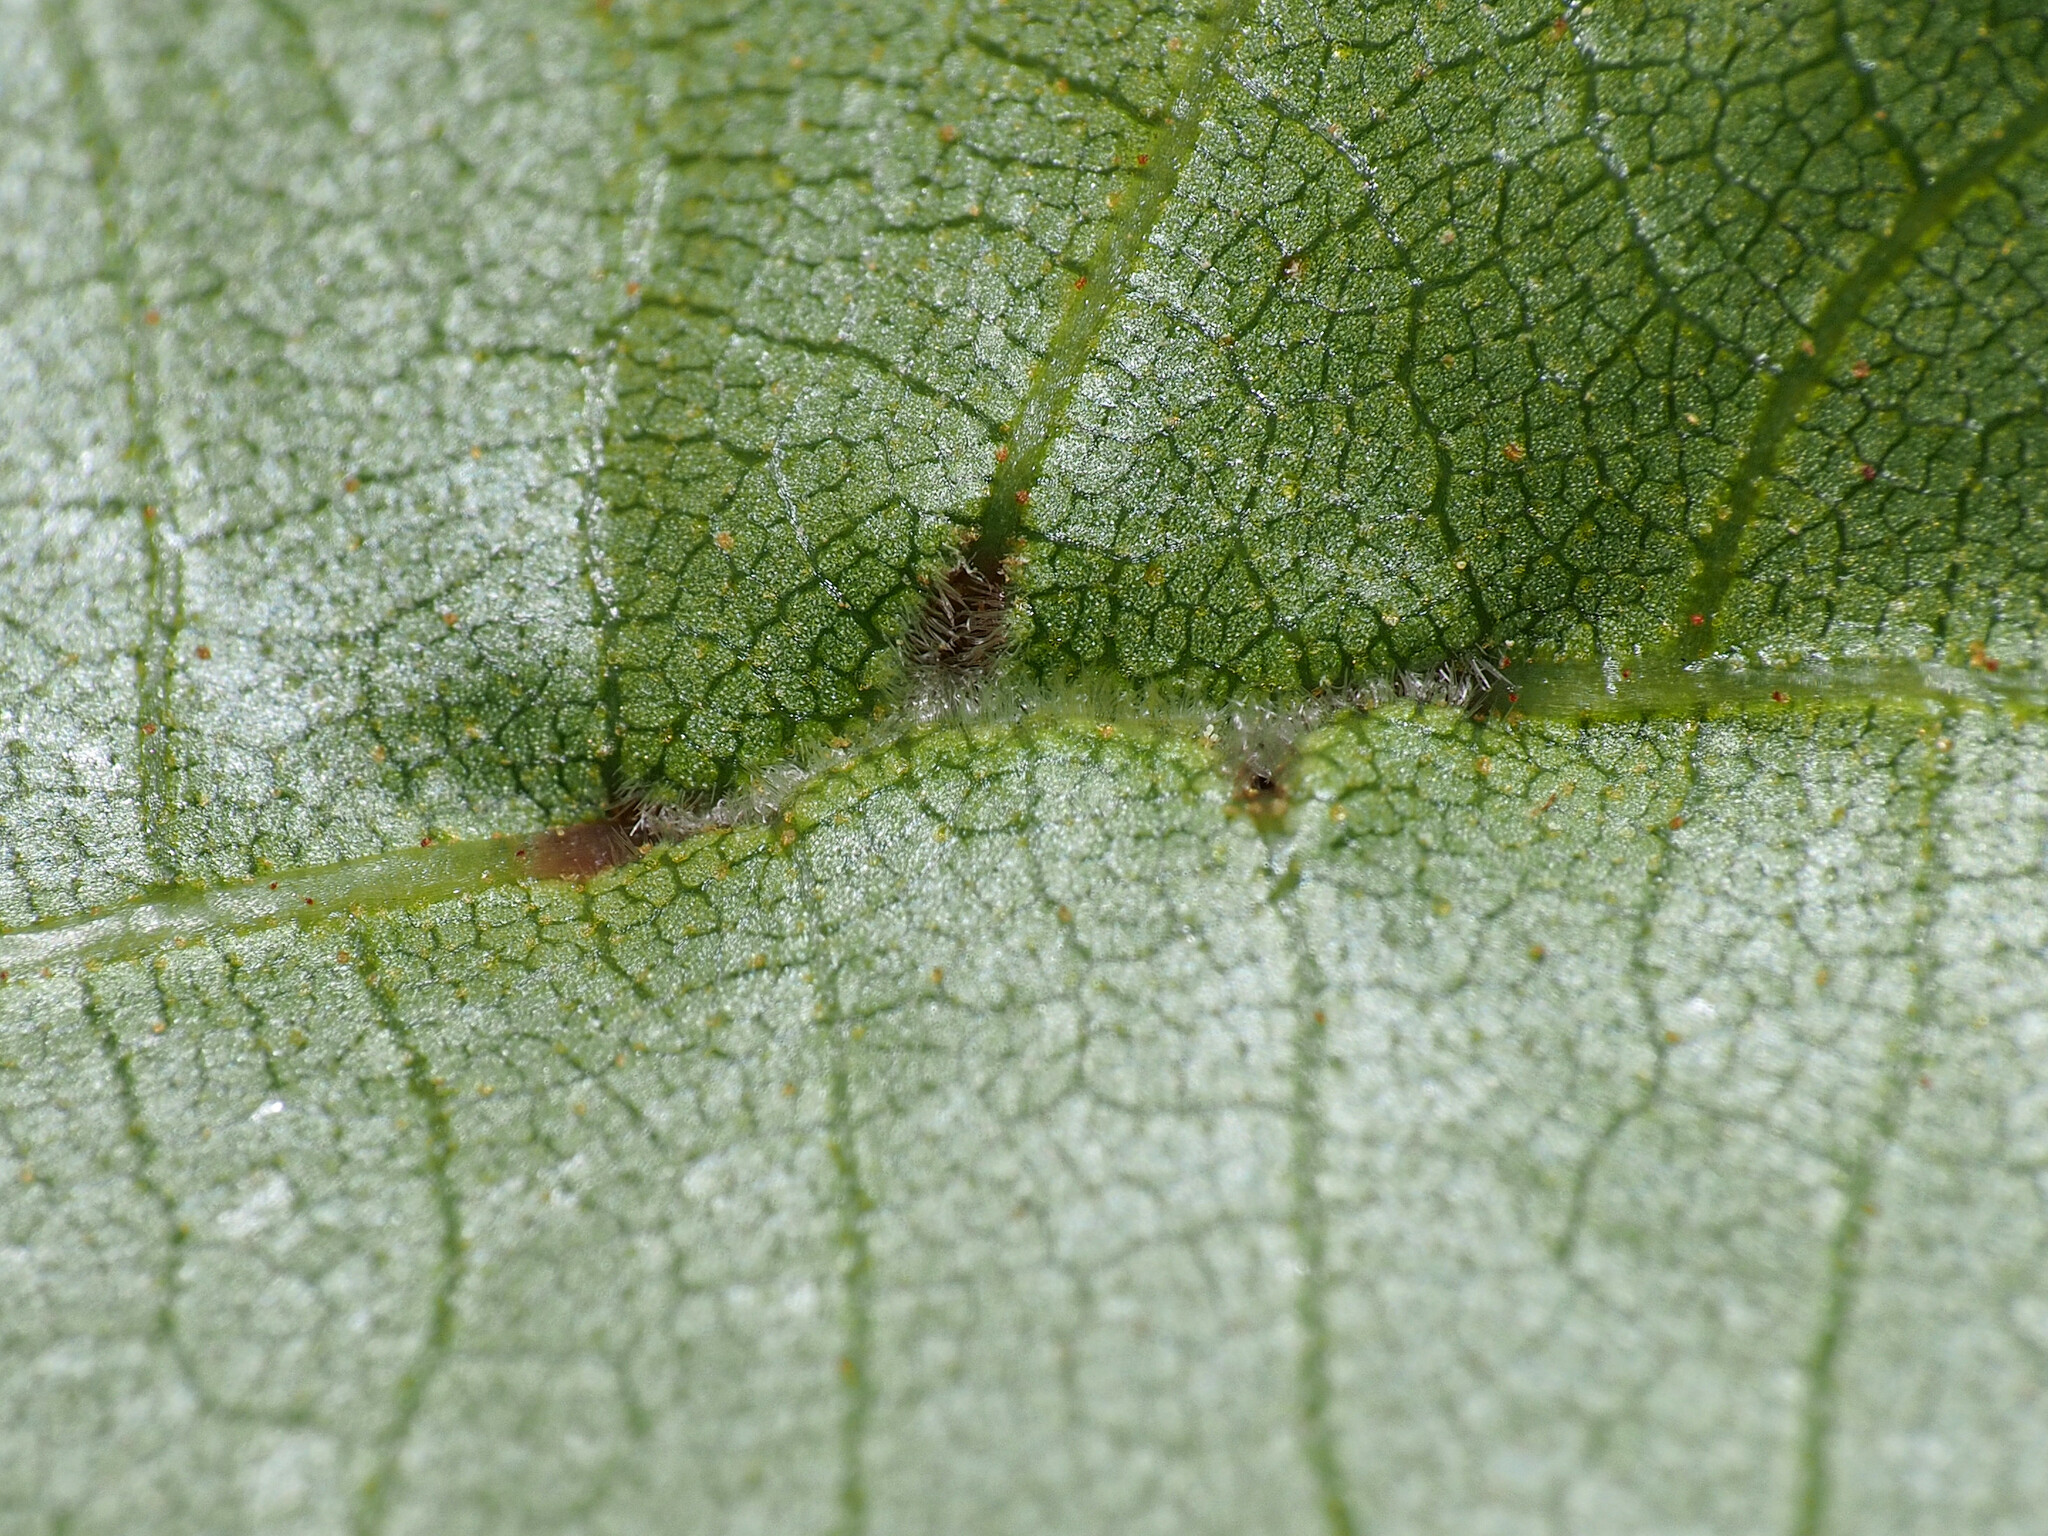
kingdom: Animalia
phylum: Arthropoda
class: Insecta
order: Hemiptera
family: Phylloxeridae
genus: Phylloxera
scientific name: Phylloxera caryaevenae
